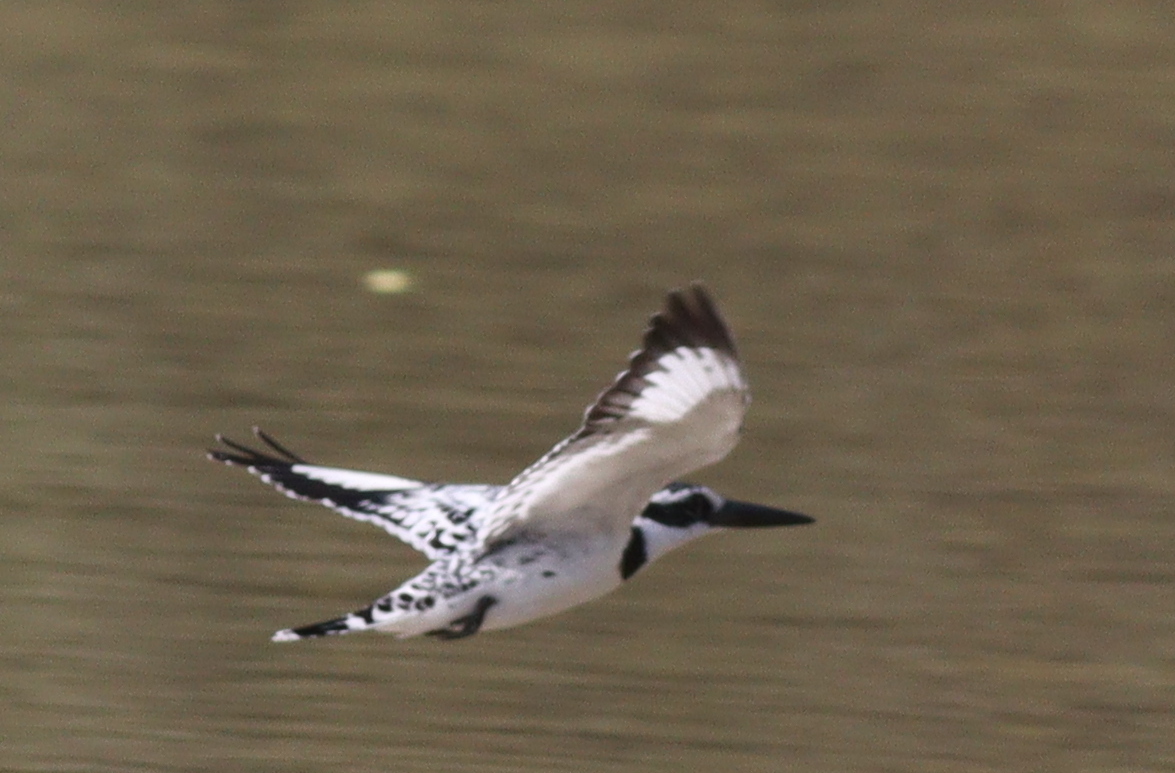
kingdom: Animalia
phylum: Chordata
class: Aves
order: Coraciiformes
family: Alcedinidae
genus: Ceryle
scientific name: Ceryle rudis
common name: Pied kingfisher
